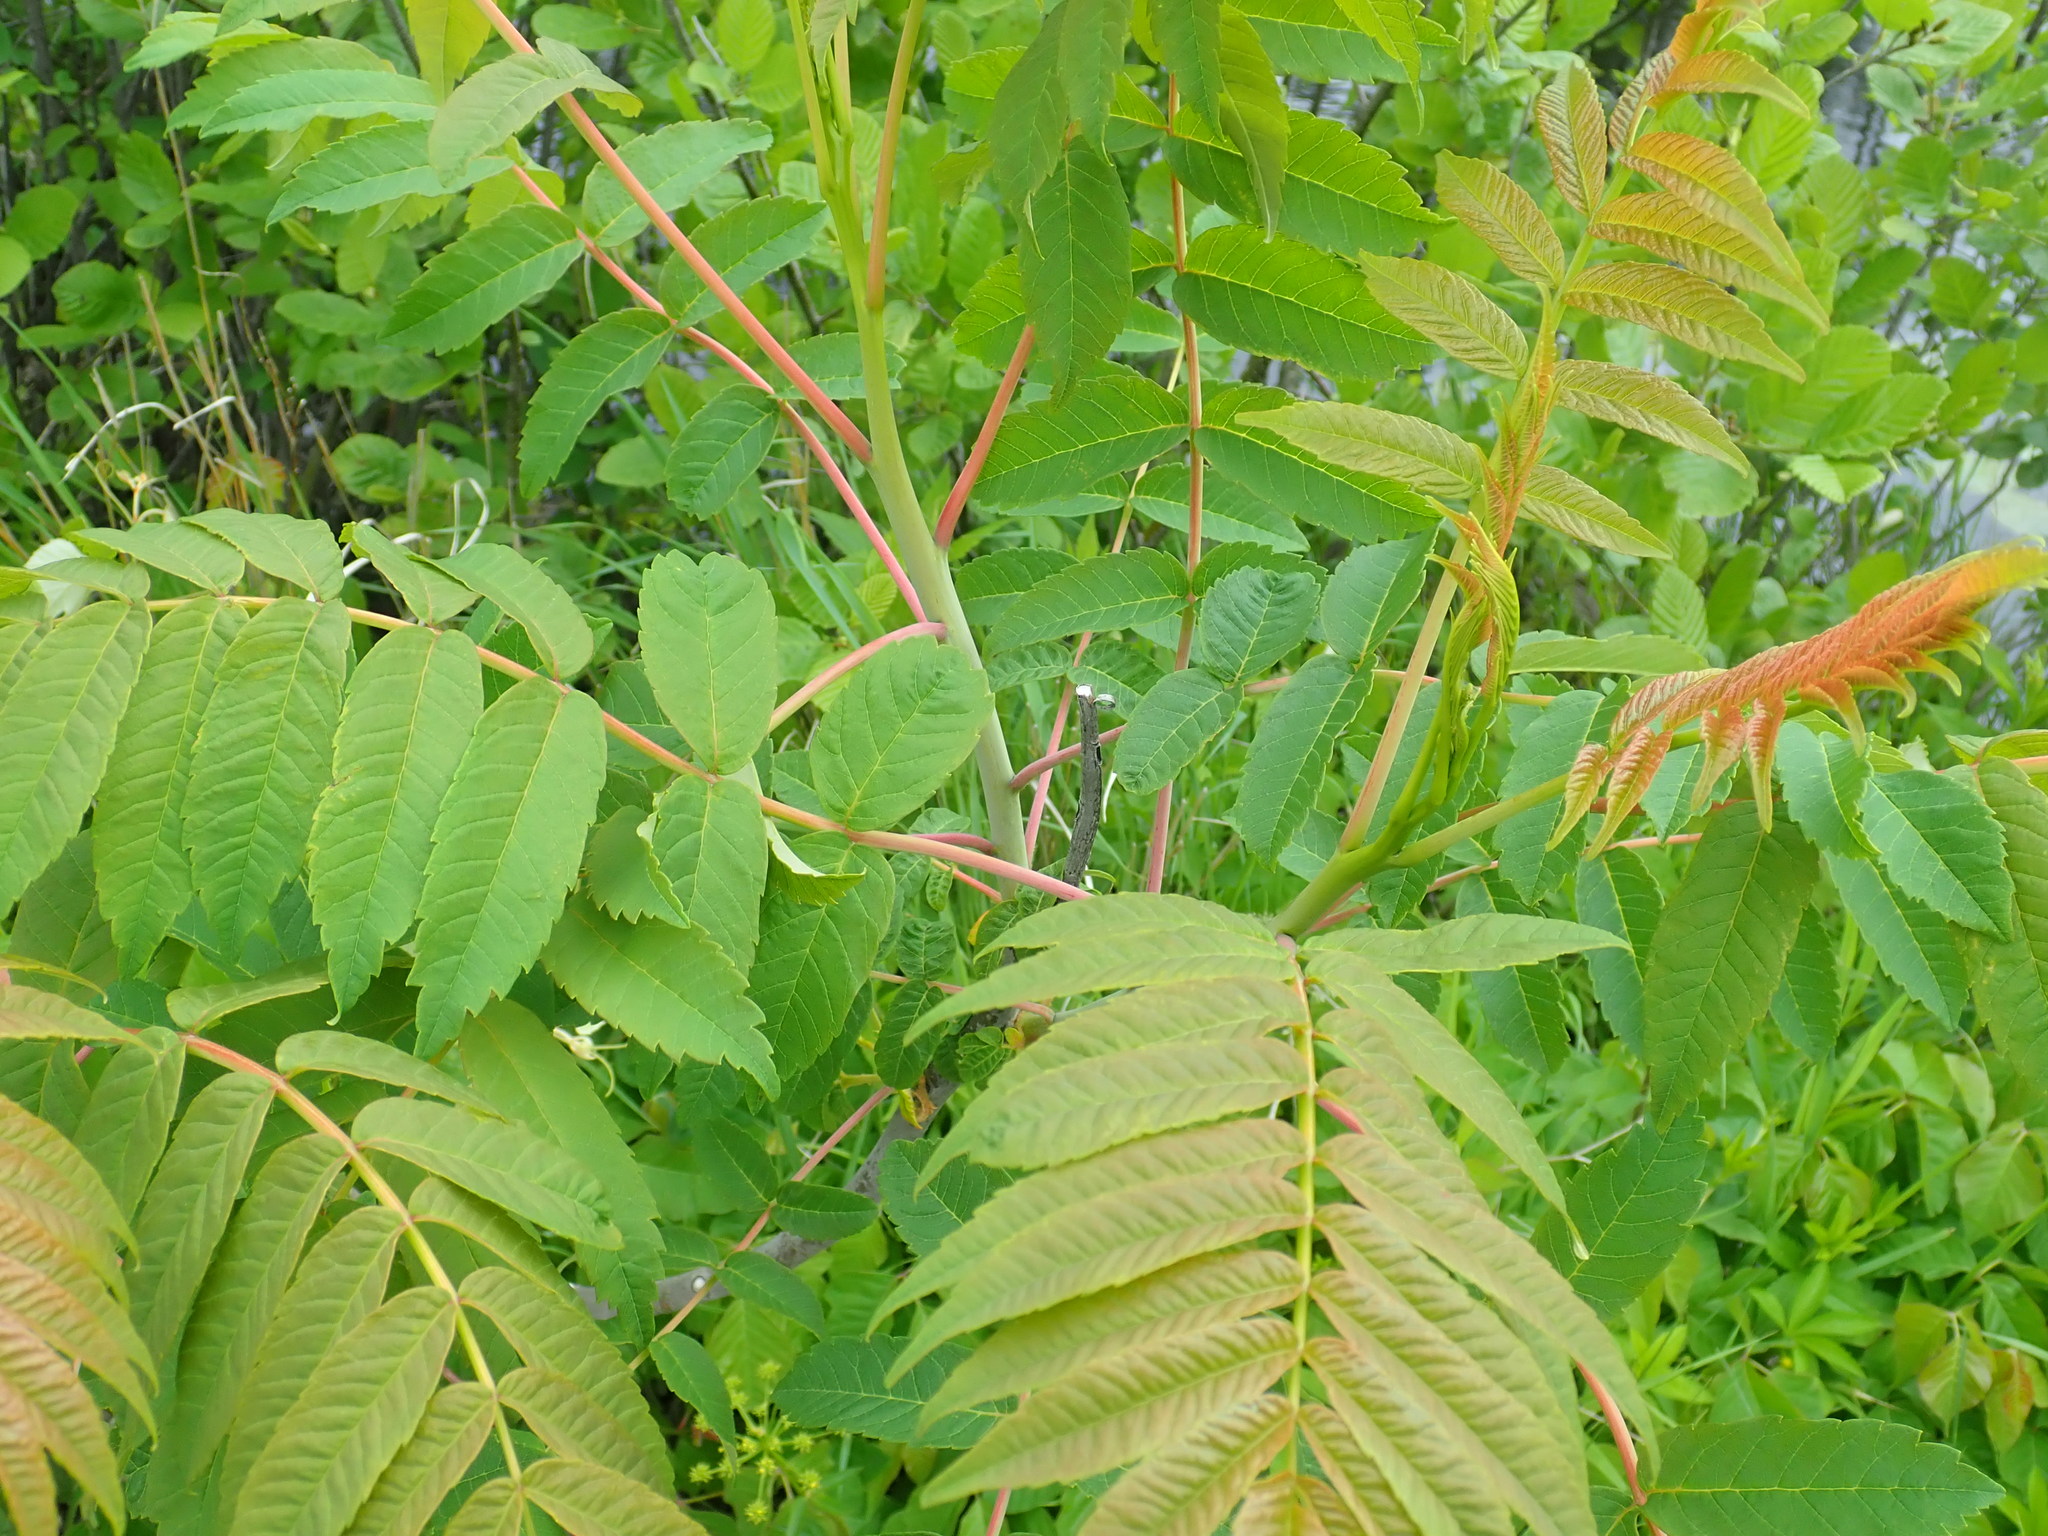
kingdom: Plantae
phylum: Tracheophyta
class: Magnoliopsida
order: Sapindales
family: Anacardiaceae
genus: Rhus
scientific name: Rhus glabra
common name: Scarlet sumac
